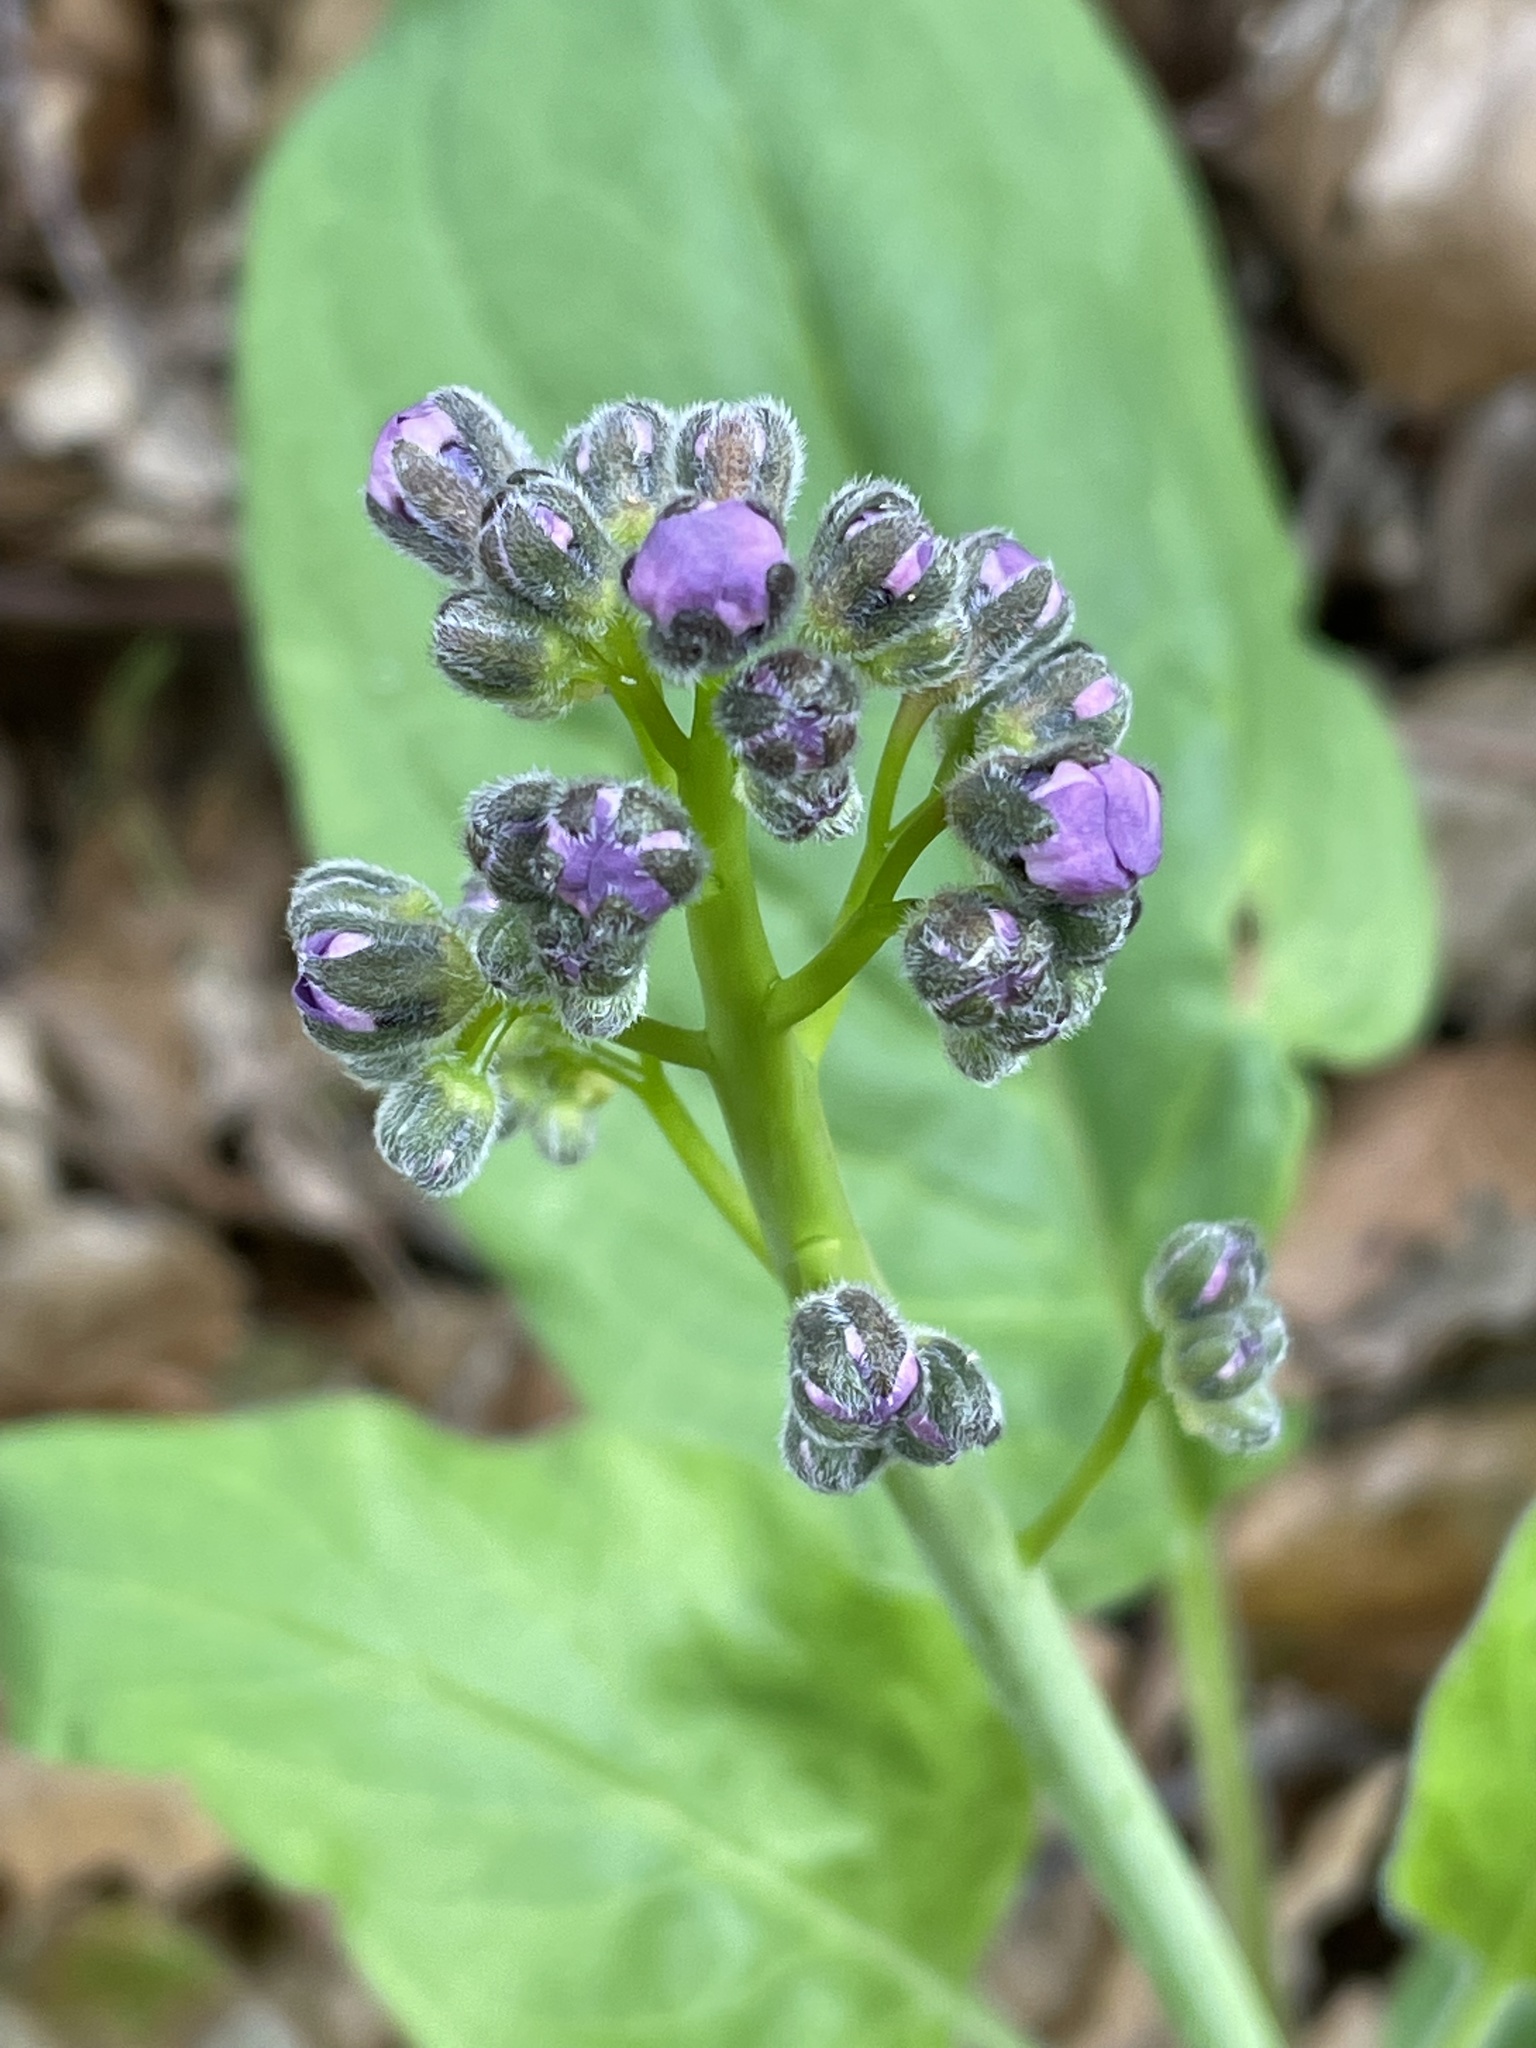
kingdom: Plantae
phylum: Tracheophyta
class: Magnoliopsida
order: Boraginales
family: Boraginaceae
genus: Adelinia
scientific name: Adelinia grande
